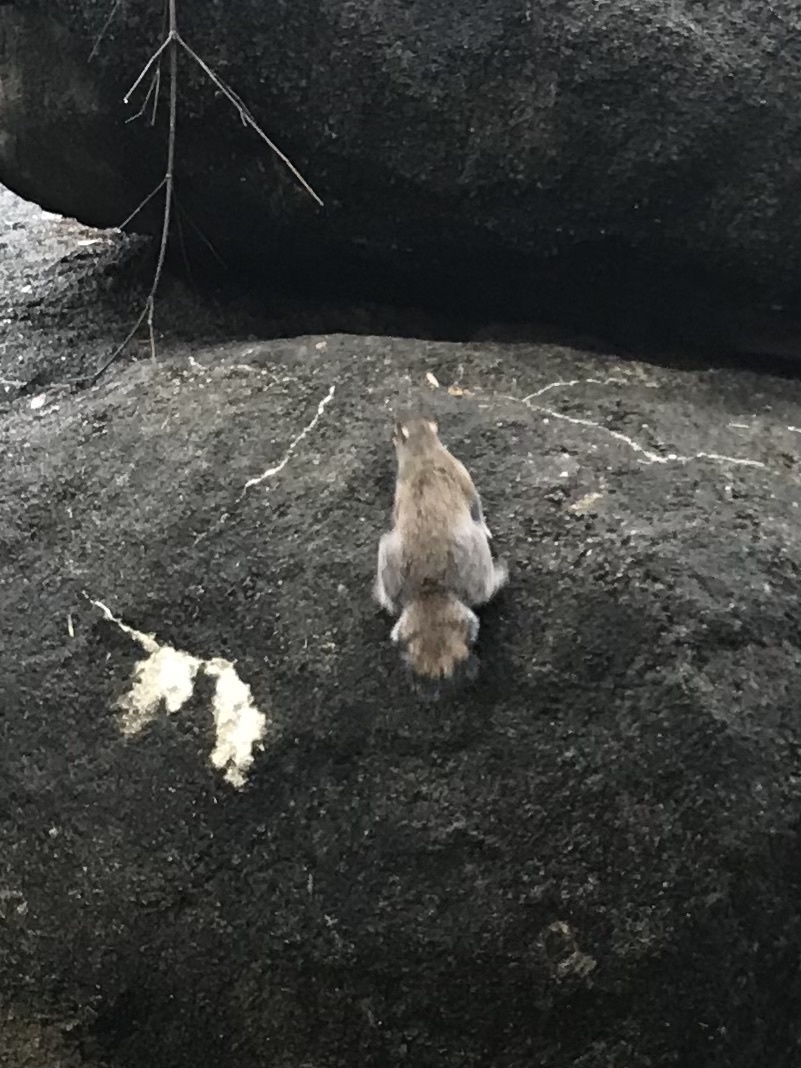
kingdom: Animalia
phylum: Chordata
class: Mammalia
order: Rodentia
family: Sciuridae
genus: Sciurus
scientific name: Sciurus carolinensis
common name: Eastern gray squirrel
